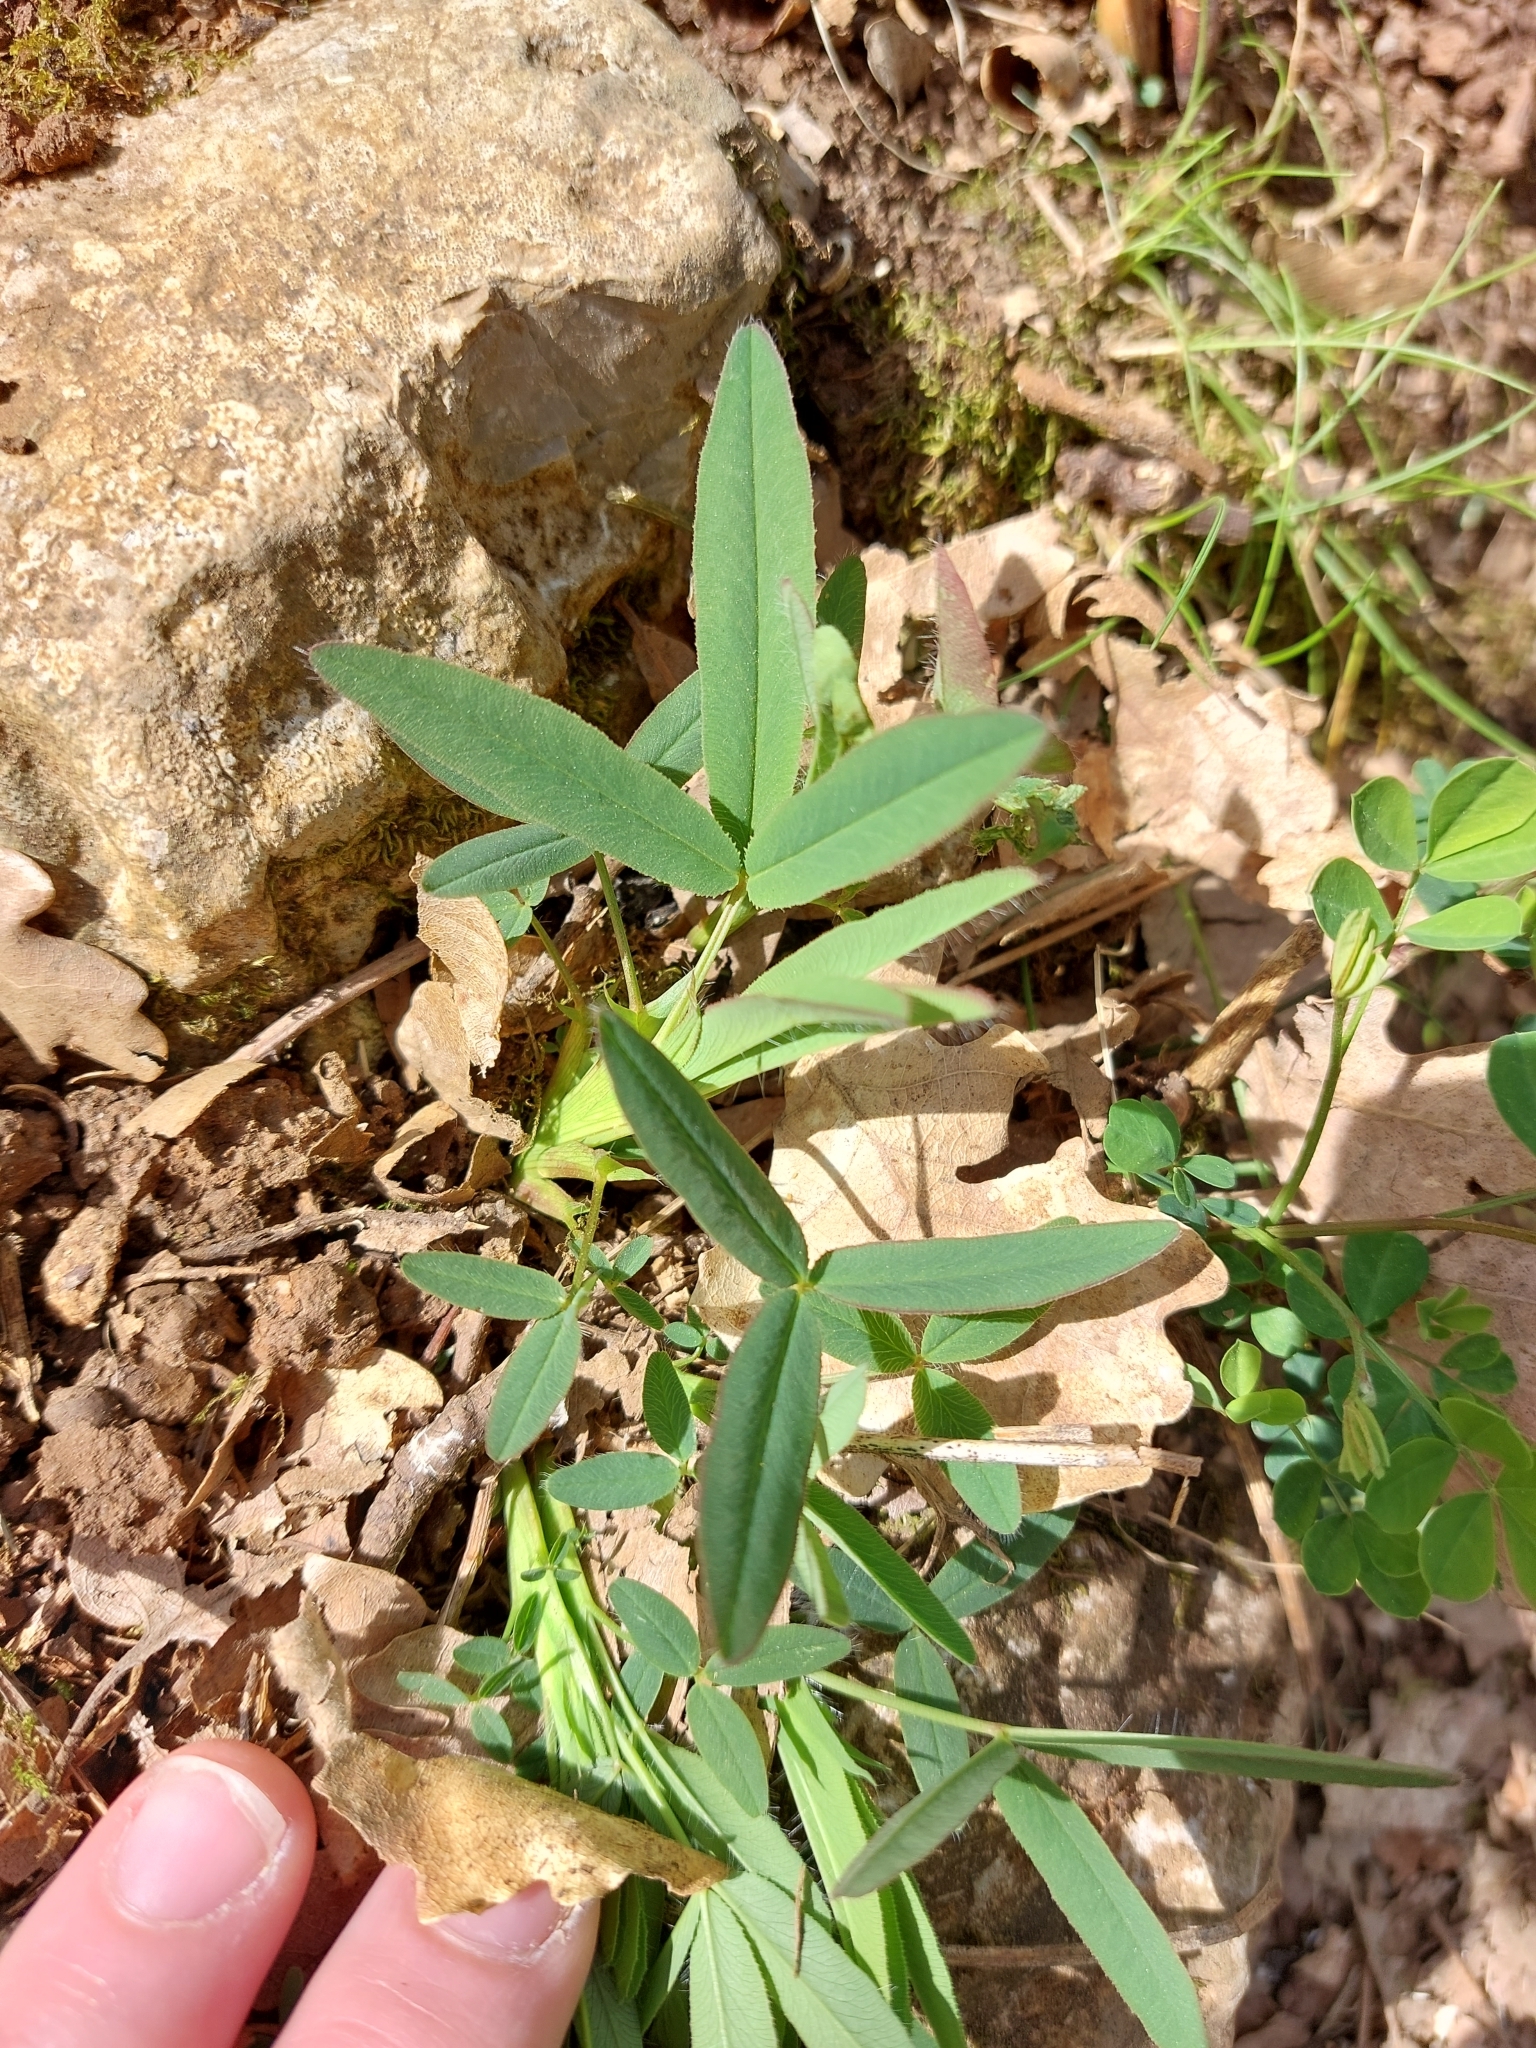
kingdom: Plantae
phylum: Tracheophyta
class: Magnoliopsida
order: Fabales
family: Fabaceae
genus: Trifolium
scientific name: Trifolium rubens
